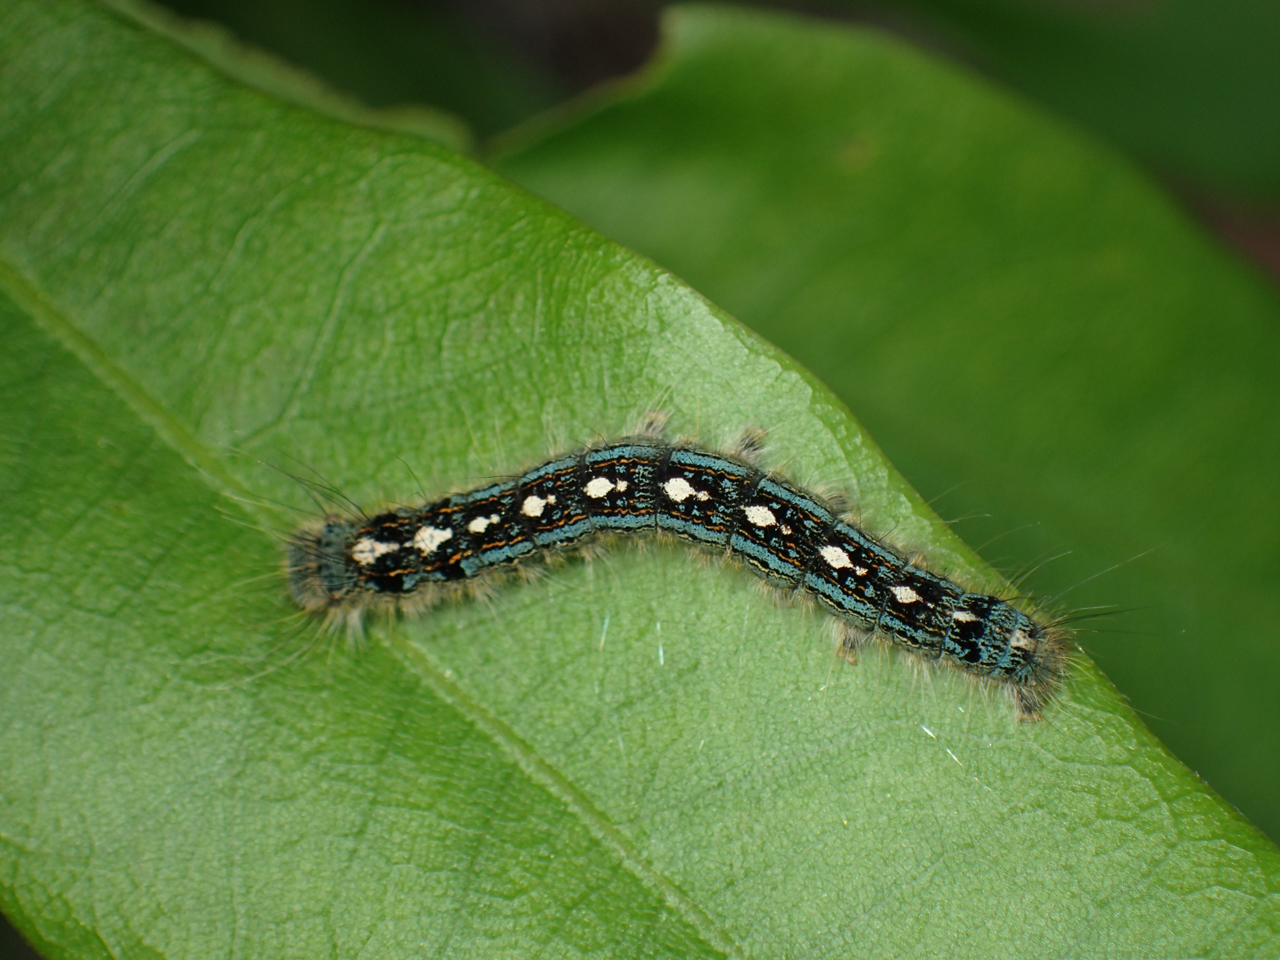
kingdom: Animalia
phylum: Arthropoda
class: Insecta
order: Lepidoptera
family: Lasiocampidae
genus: Malacosoma
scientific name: Malacosoma disstria
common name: Forest tent caterpillar
